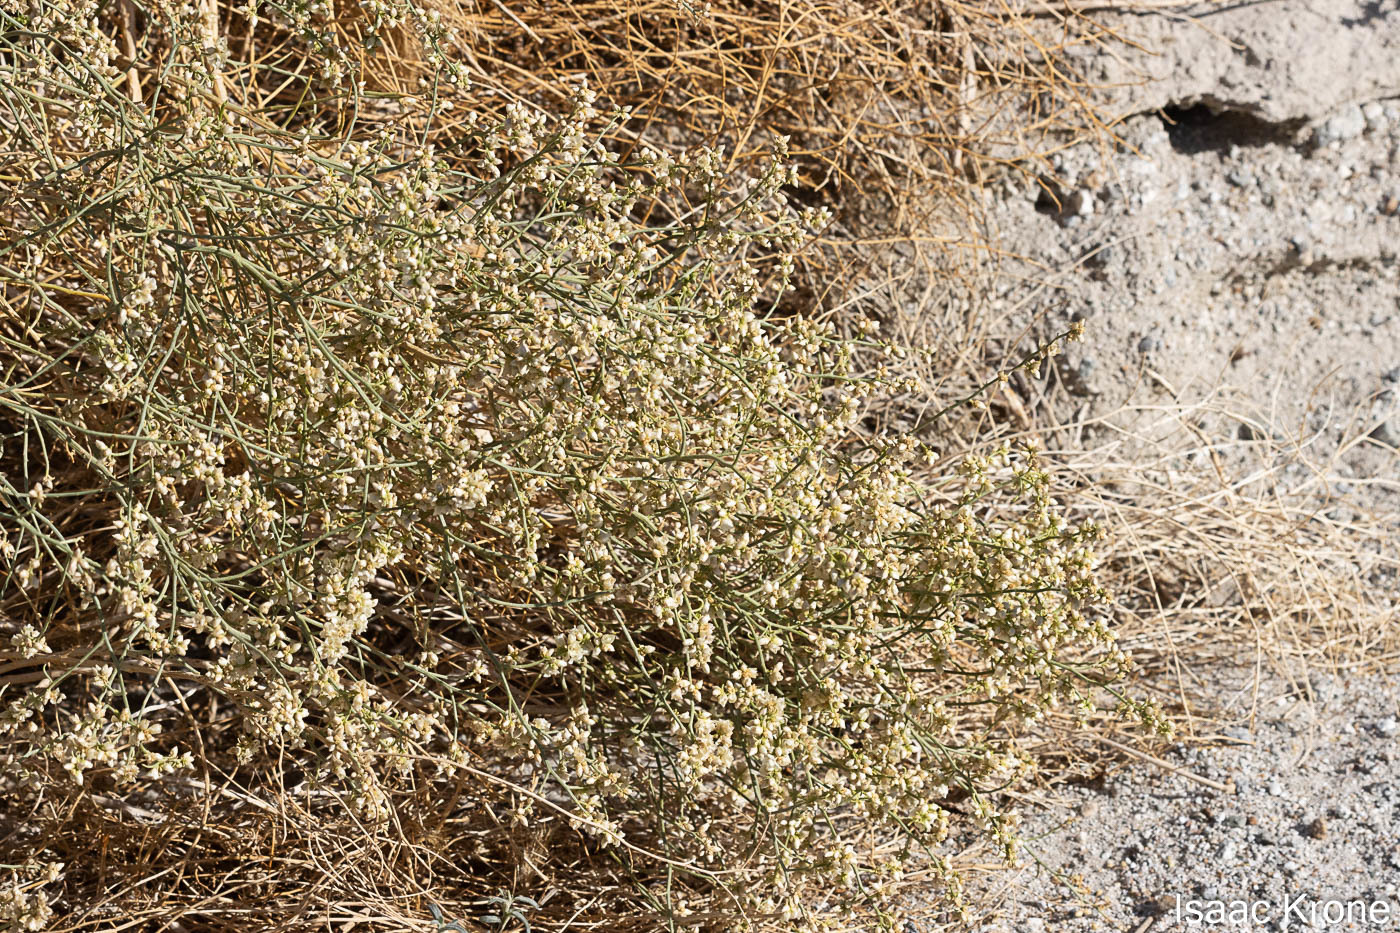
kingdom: Plantae
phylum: Tracheophyta
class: Magnoliopsida
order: Asterales
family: Asteraceae
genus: Ambrosia
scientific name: Ambrosia salsola
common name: Burrobrush
